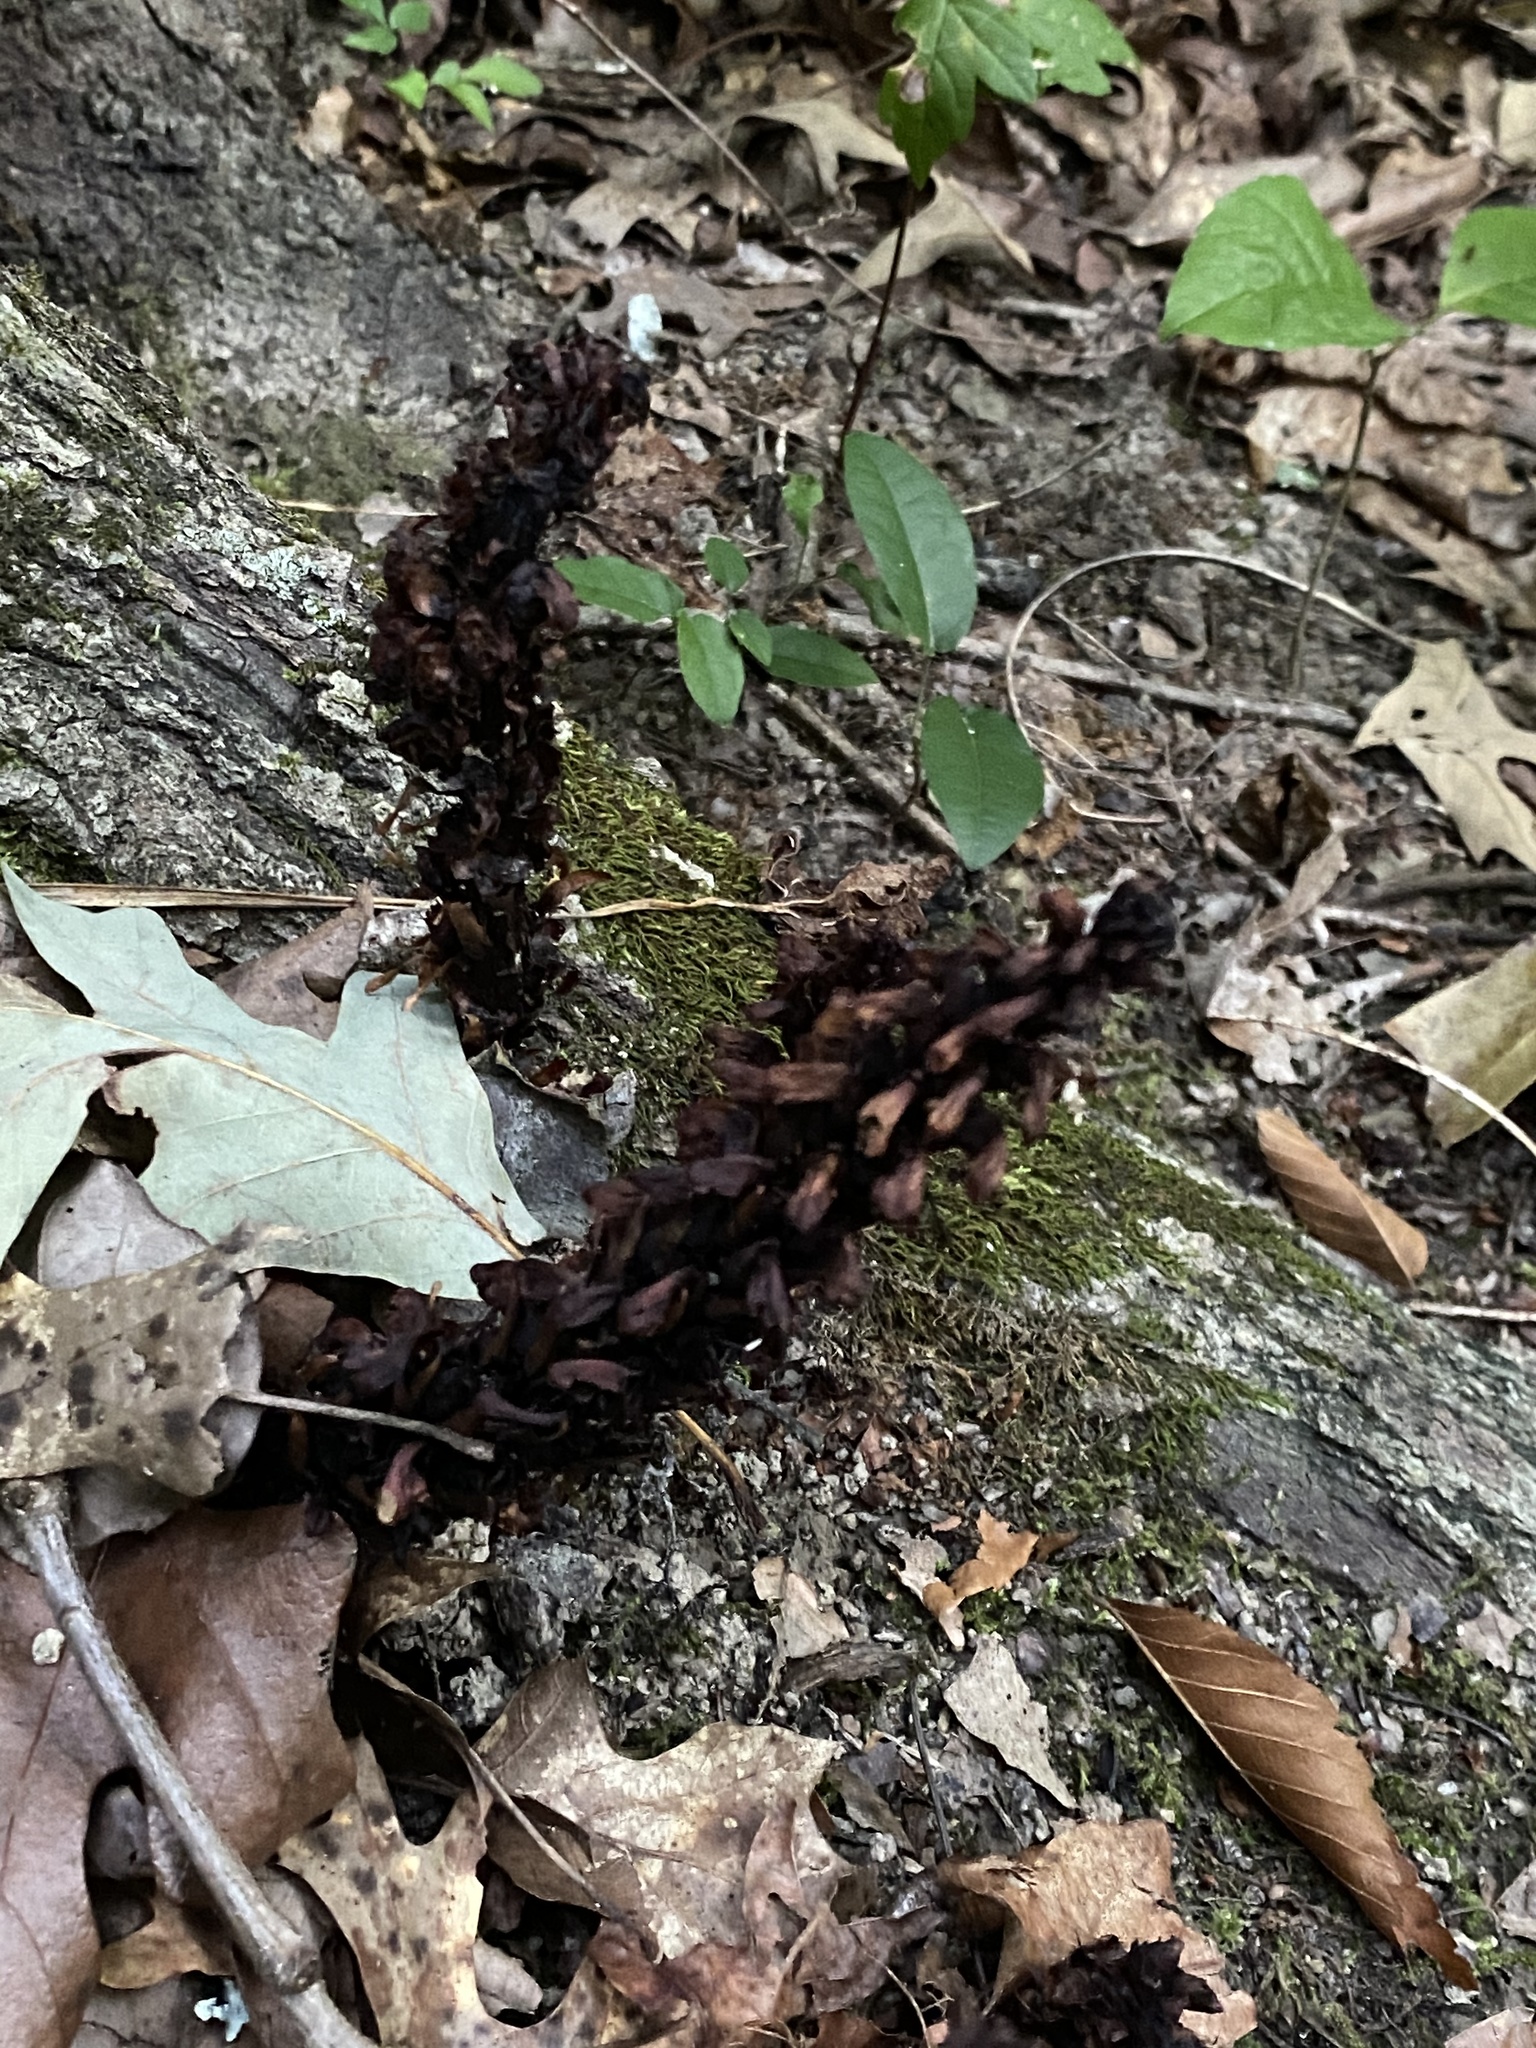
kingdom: Plantae
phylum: Tracheophyta
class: Magnoliopsida
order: Lamiales
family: Orobanchaceae
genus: Conopholis
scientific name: Conopholis americana
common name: American cancer-root
